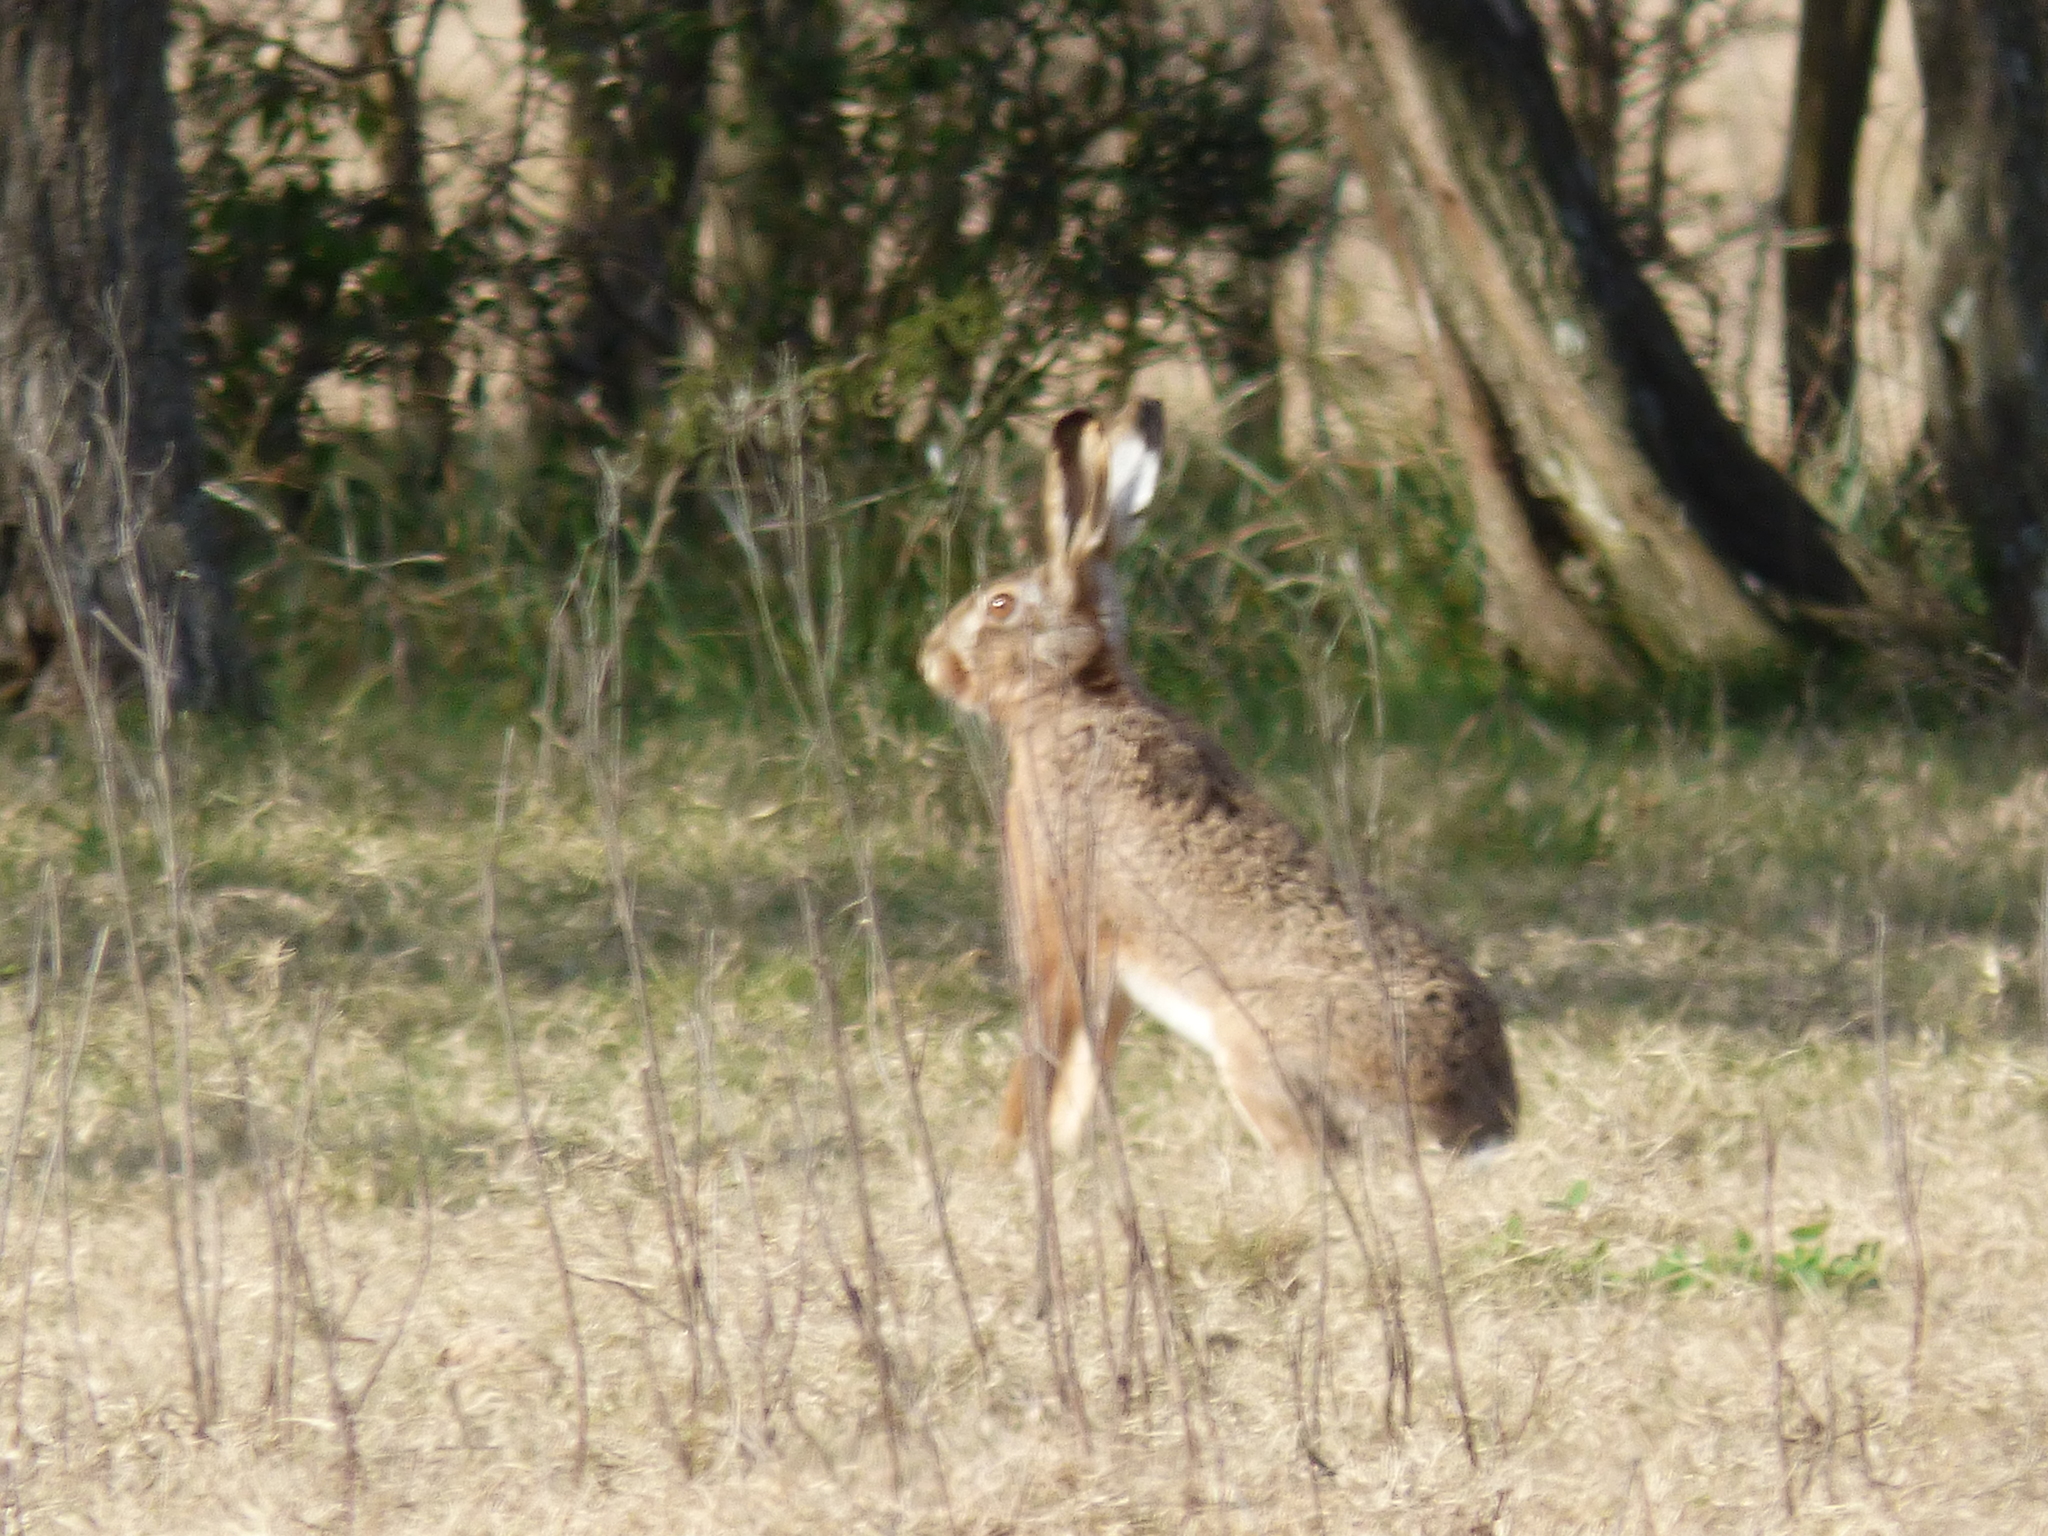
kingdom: Animalia
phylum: Chordata
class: Mammalia
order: Lagomorpha
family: Leporidae
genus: Lepus
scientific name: Lepus europaeus
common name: European hare
